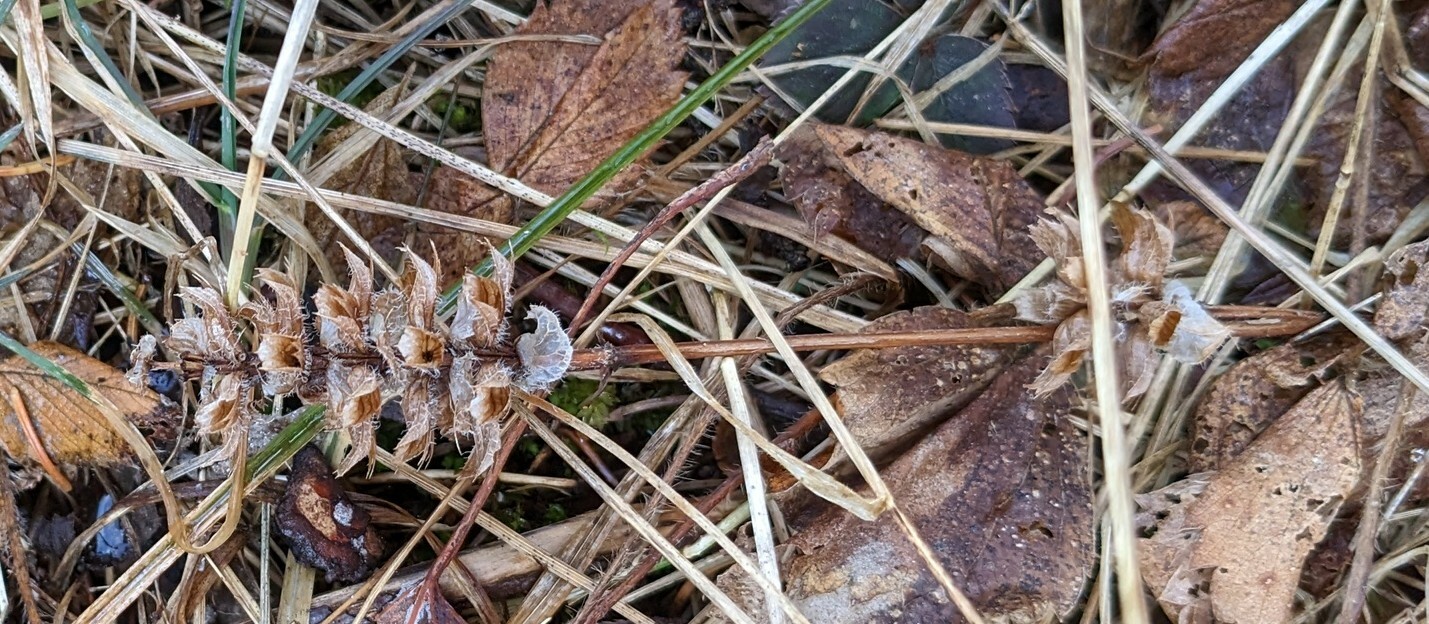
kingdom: Plantae
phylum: Tracheophyta
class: Magnoliopsida
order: Lamiales
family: Lamiaceae
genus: Prunella
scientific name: Prunella vulgaris
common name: Heal-all
